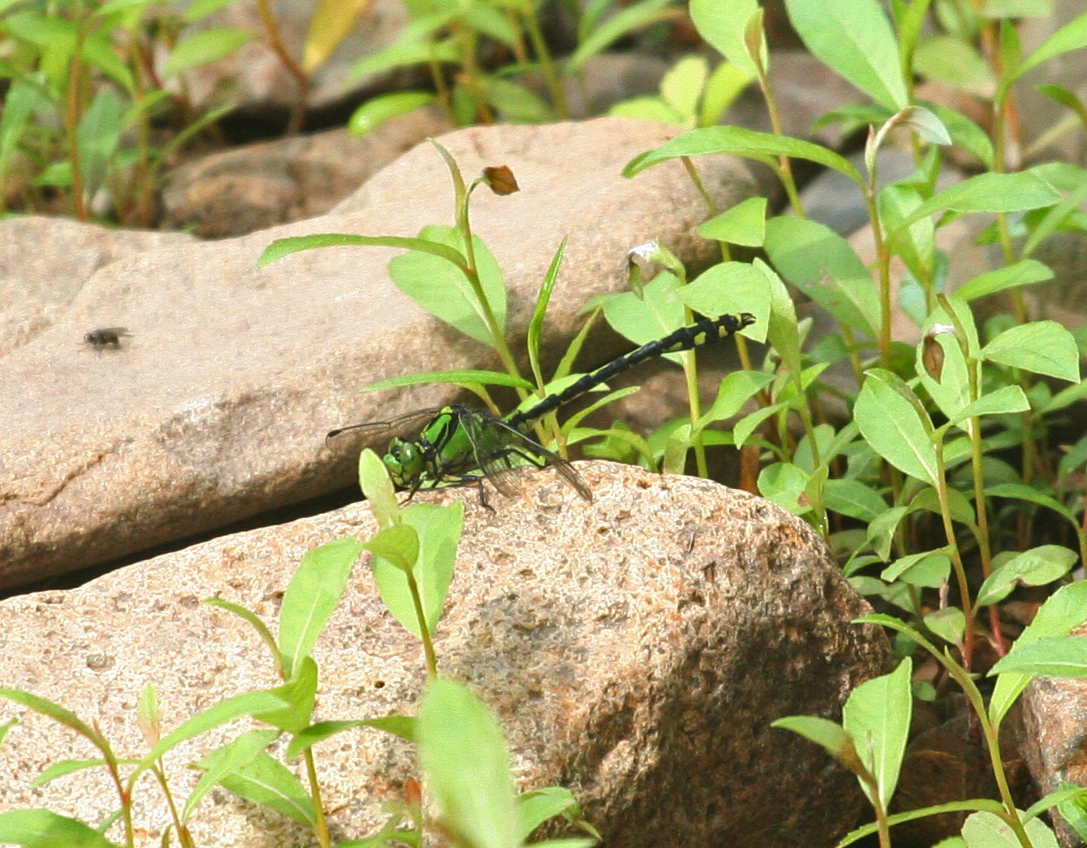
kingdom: Animalia
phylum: Arthropoda
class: Insecta
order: Odonata
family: Gomphidae
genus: Ophiogomphus
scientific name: Ophiogomphus obscurus
